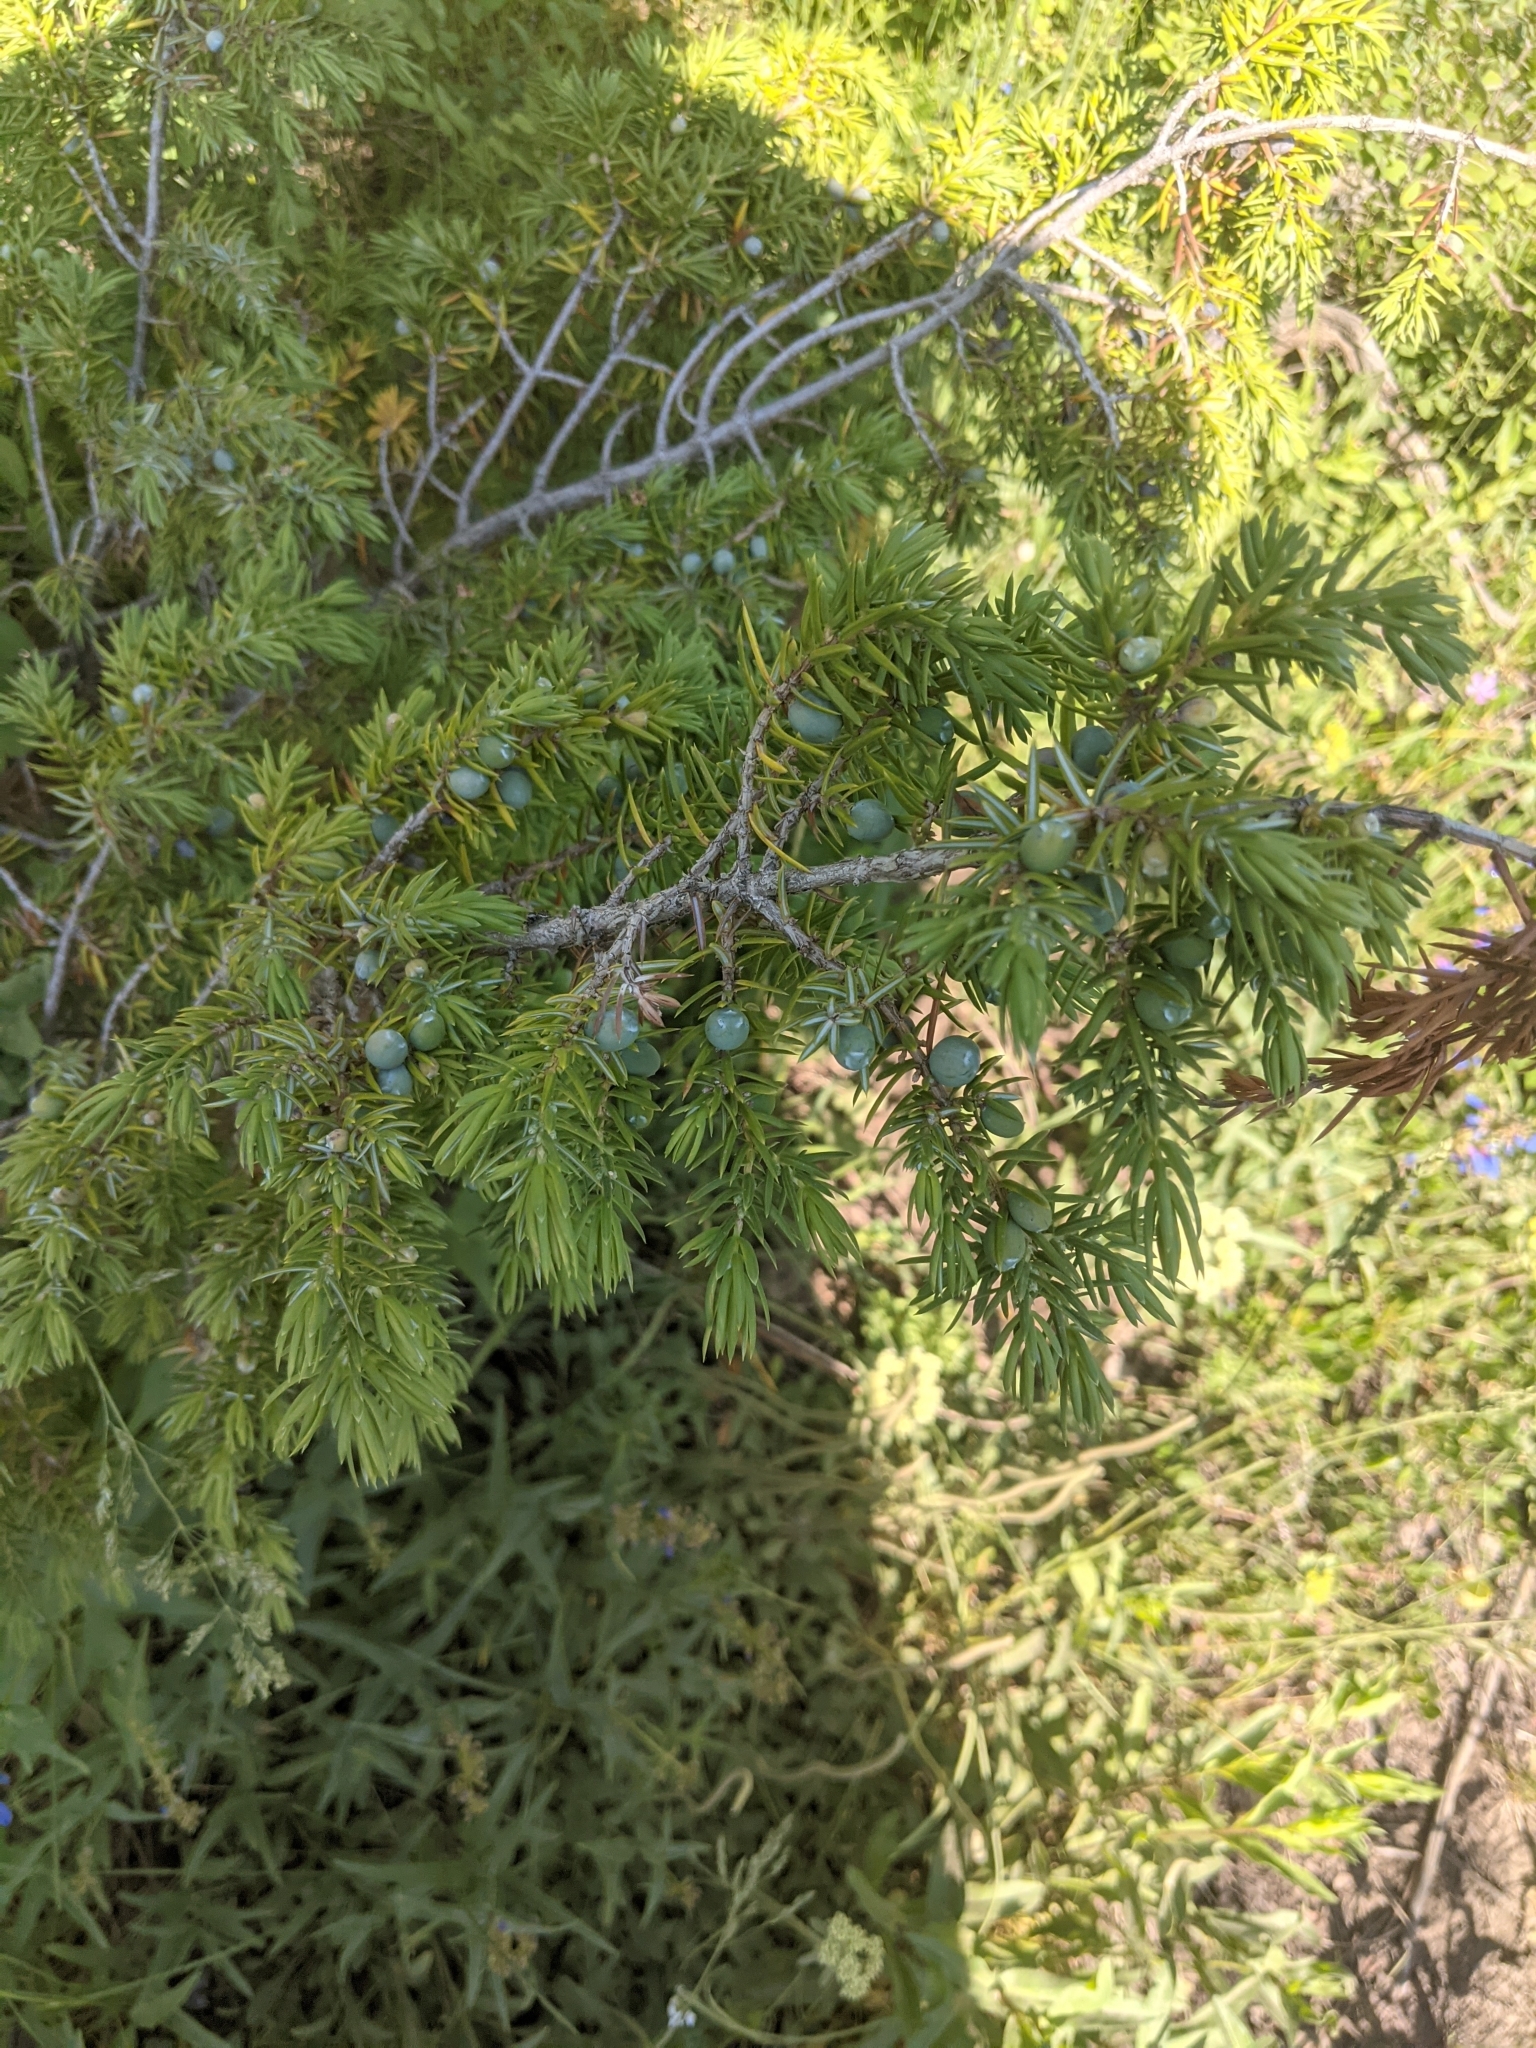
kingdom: Plantae
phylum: Tracheophyta
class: Pinopsida
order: Pinales
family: Cupressaceae
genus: Juniperus
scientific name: Juniperus communis
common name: Common juniper
